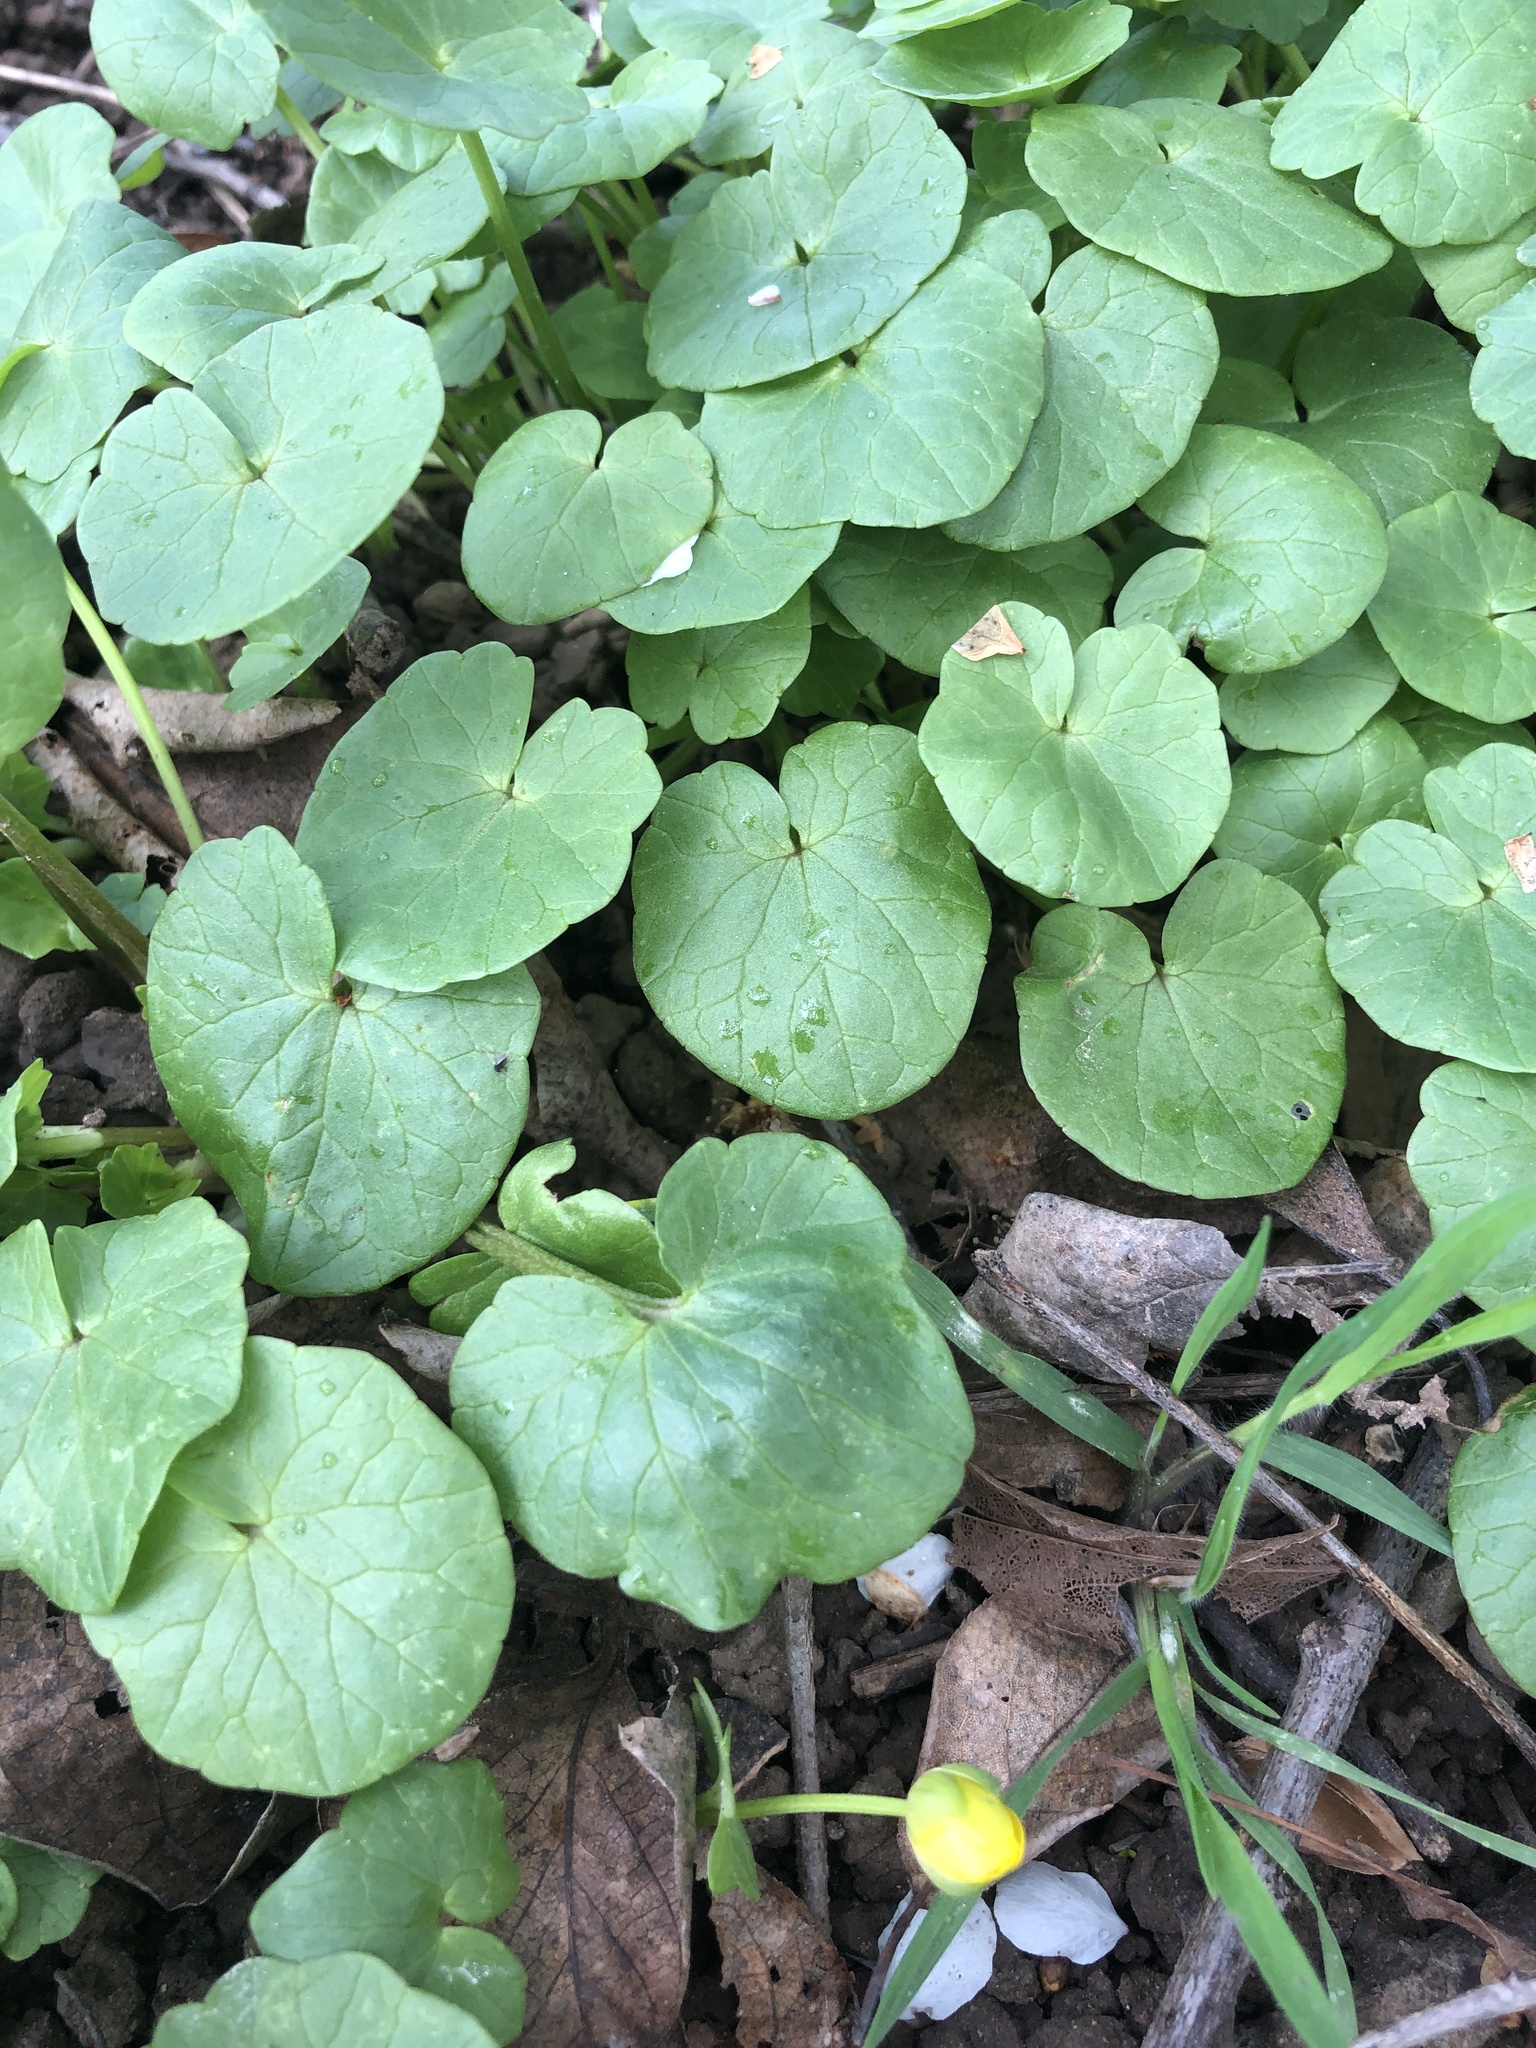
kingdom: Plantae
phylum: Tracheophyta
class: Magnoliopsida
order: Ranunculales
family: Ranunculaceae
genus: Ficaria
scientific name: Ficaria verna
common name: Lesser celandine
